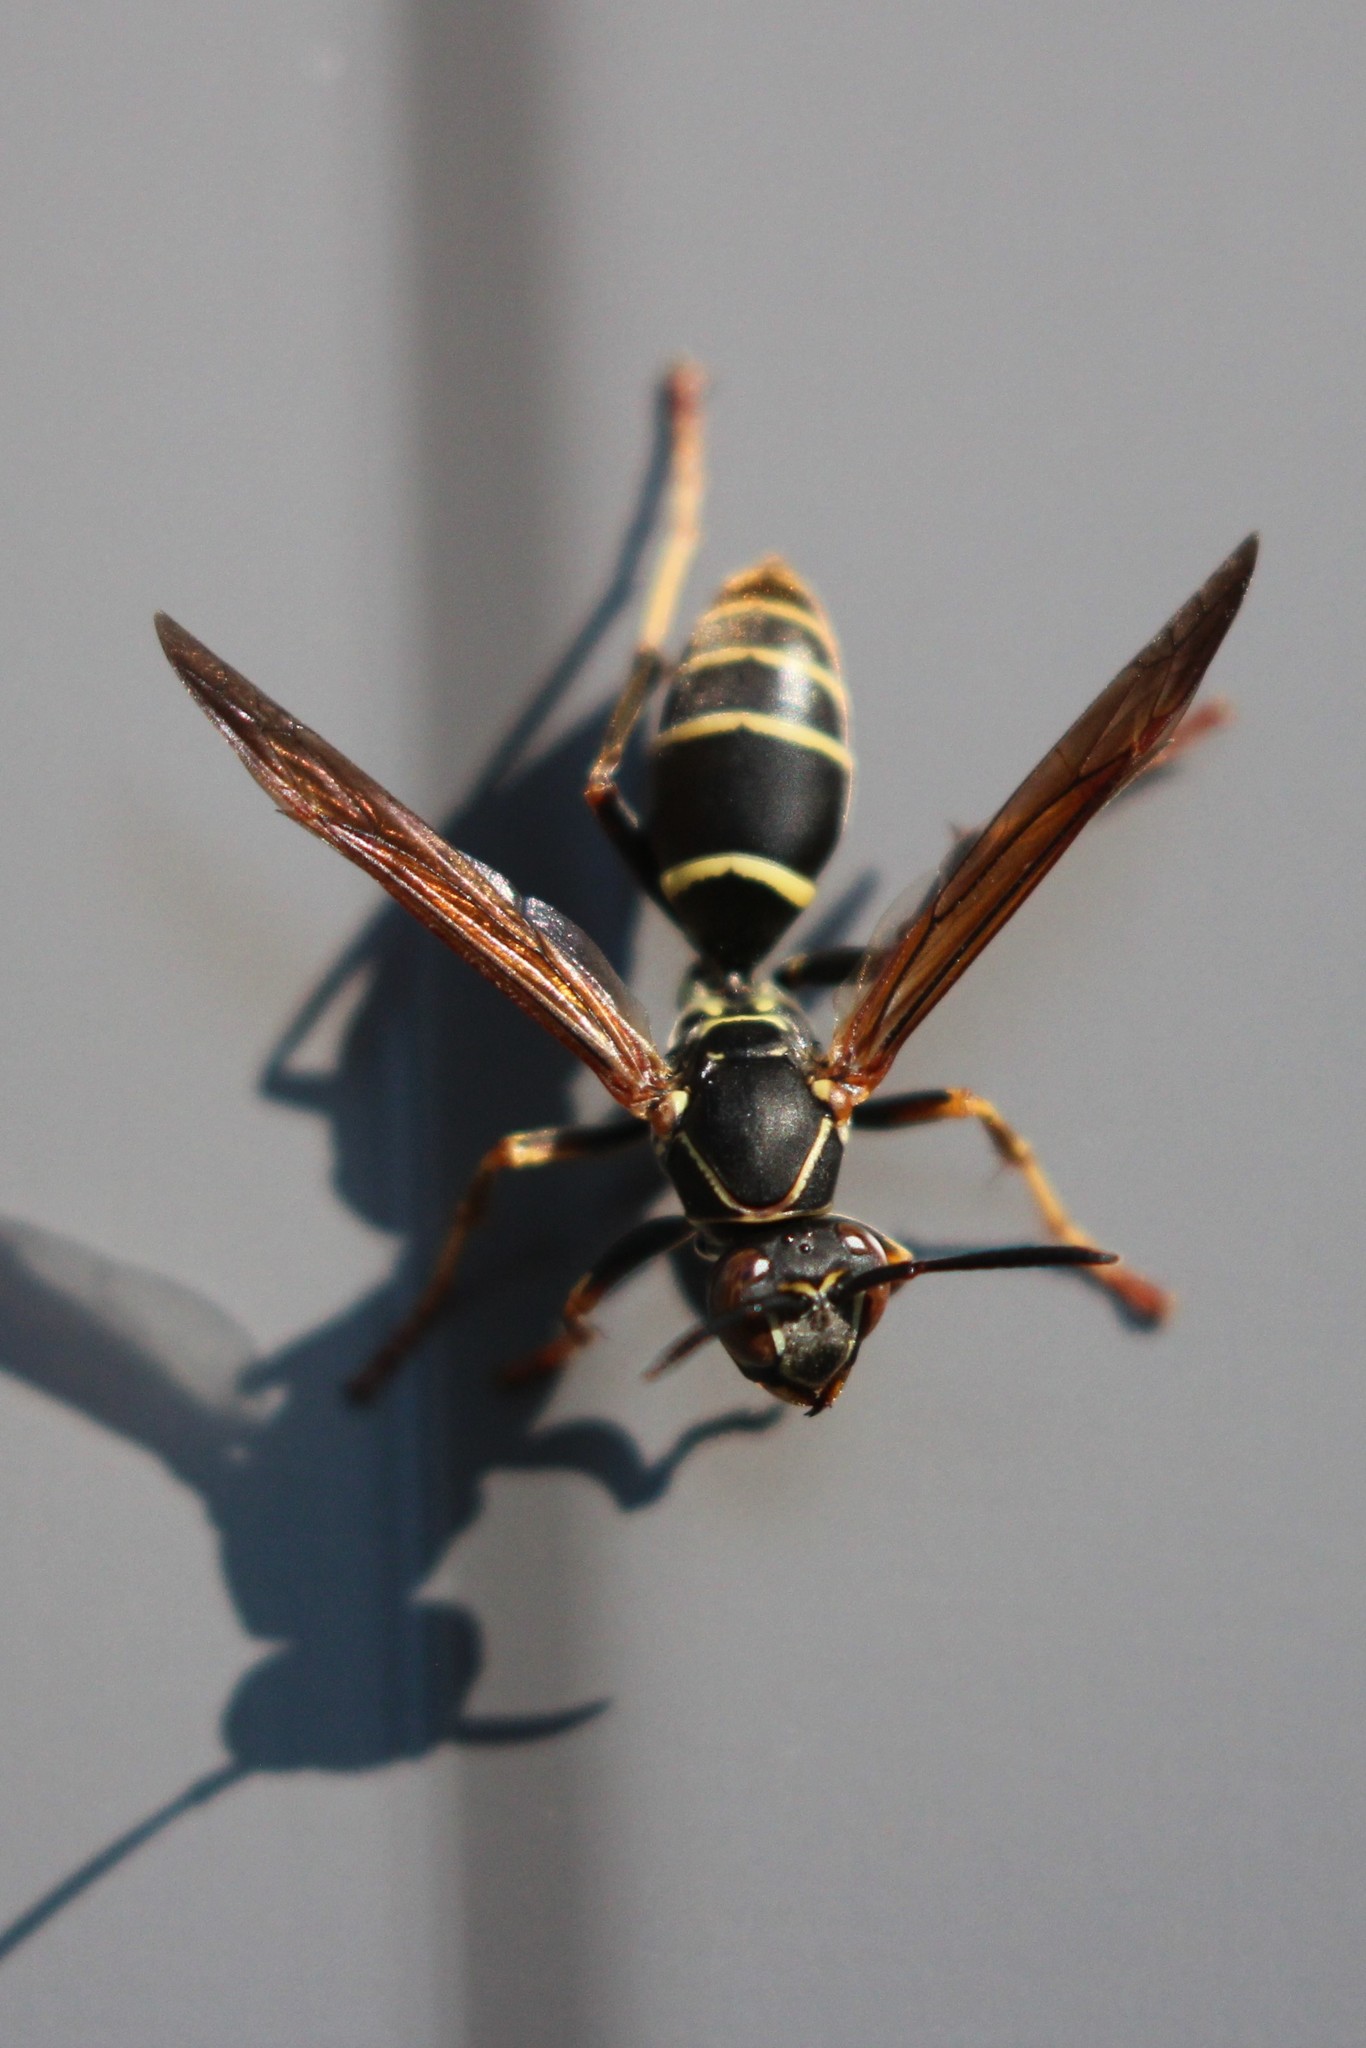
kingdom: Animalia
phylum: Arthropoda
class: Insecta
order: Hymenoptera
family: Eumenidae
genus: Polistes
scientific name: Polistes fuscatus
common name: Dark paper wasp
